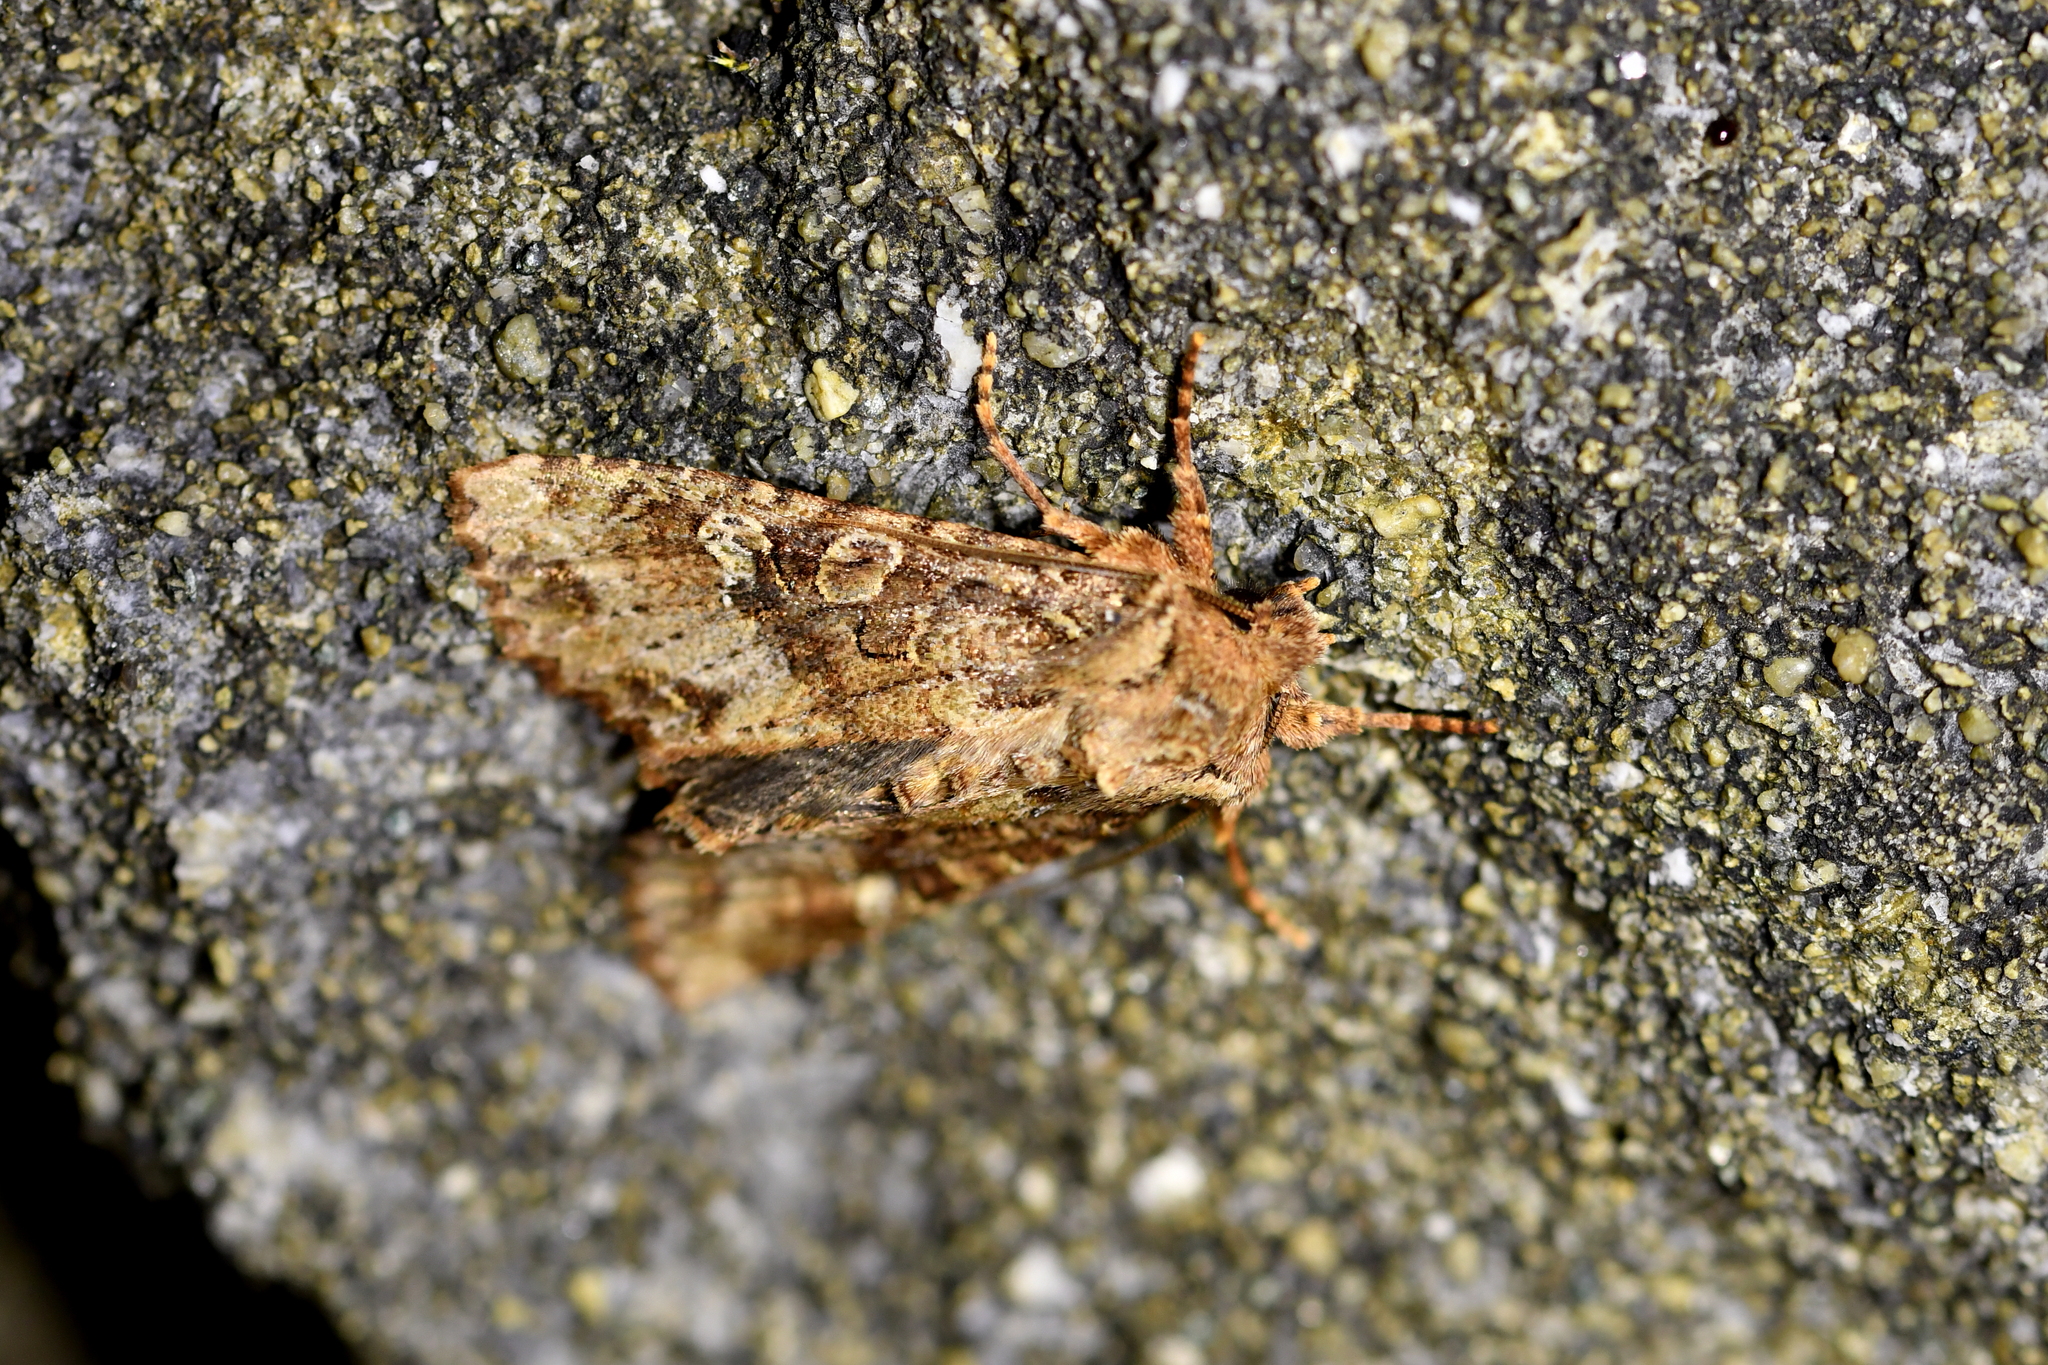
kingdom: Animalia
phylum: Arthropoda
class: Insecta
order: Lepidoptera
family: Noctuidae
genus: Meterana
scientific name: Meterana
